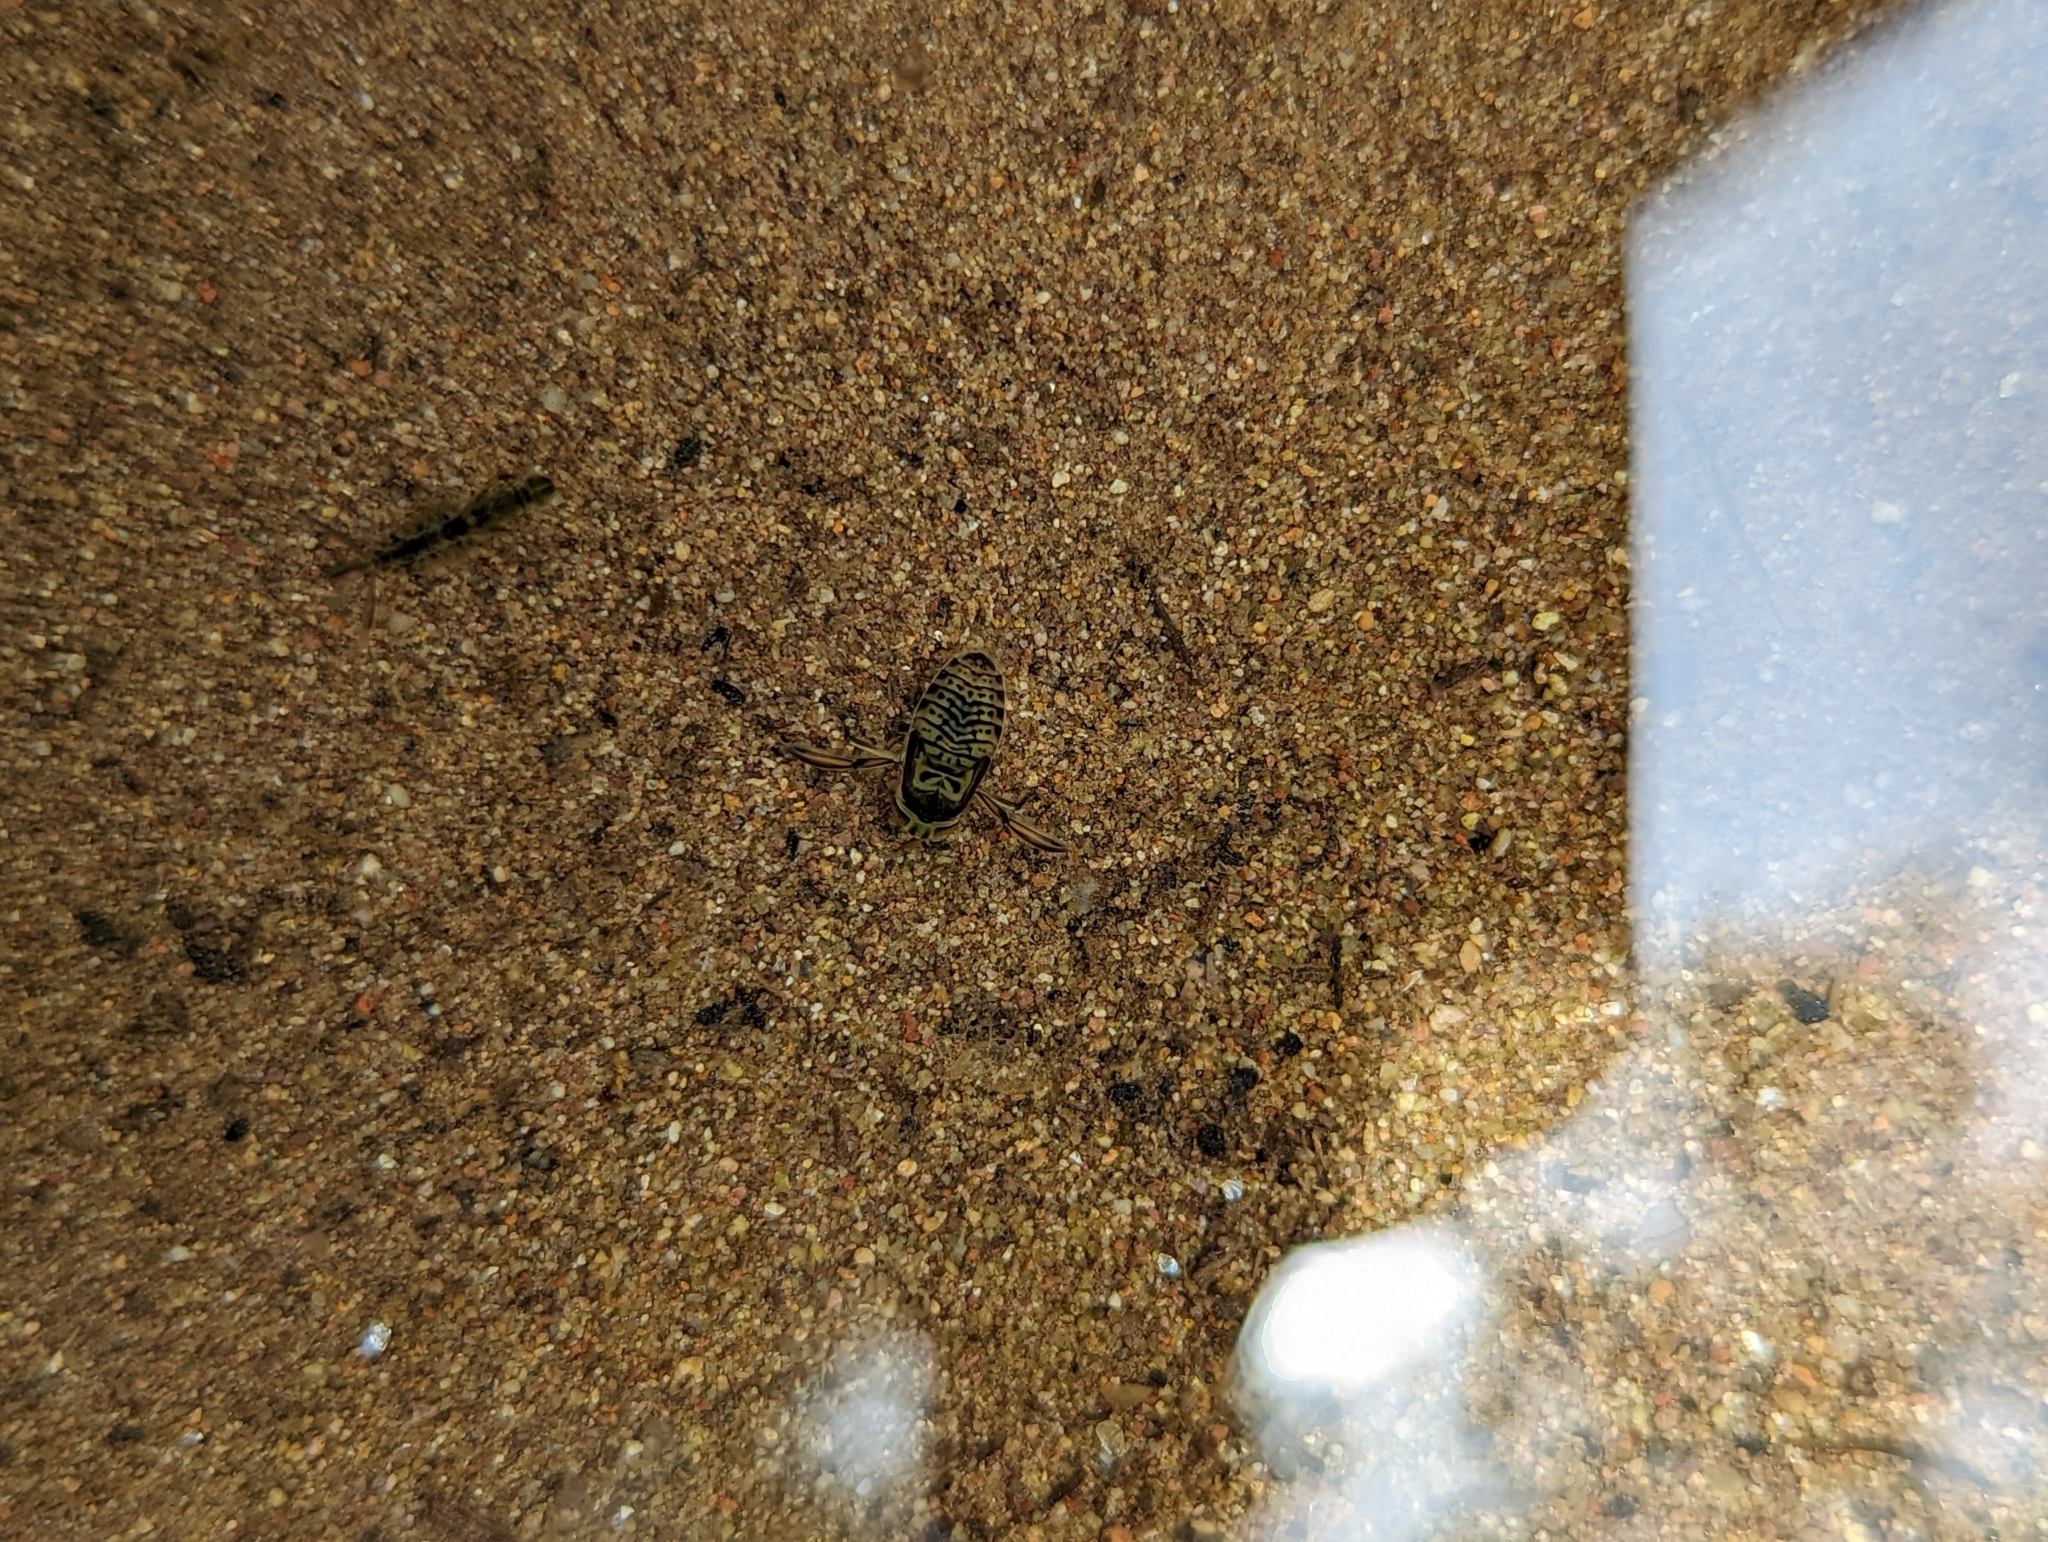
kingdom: Animalia
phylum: Arthropoda
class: Insecta
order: Hemiptera
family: Corixidae
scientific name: Corixidae
